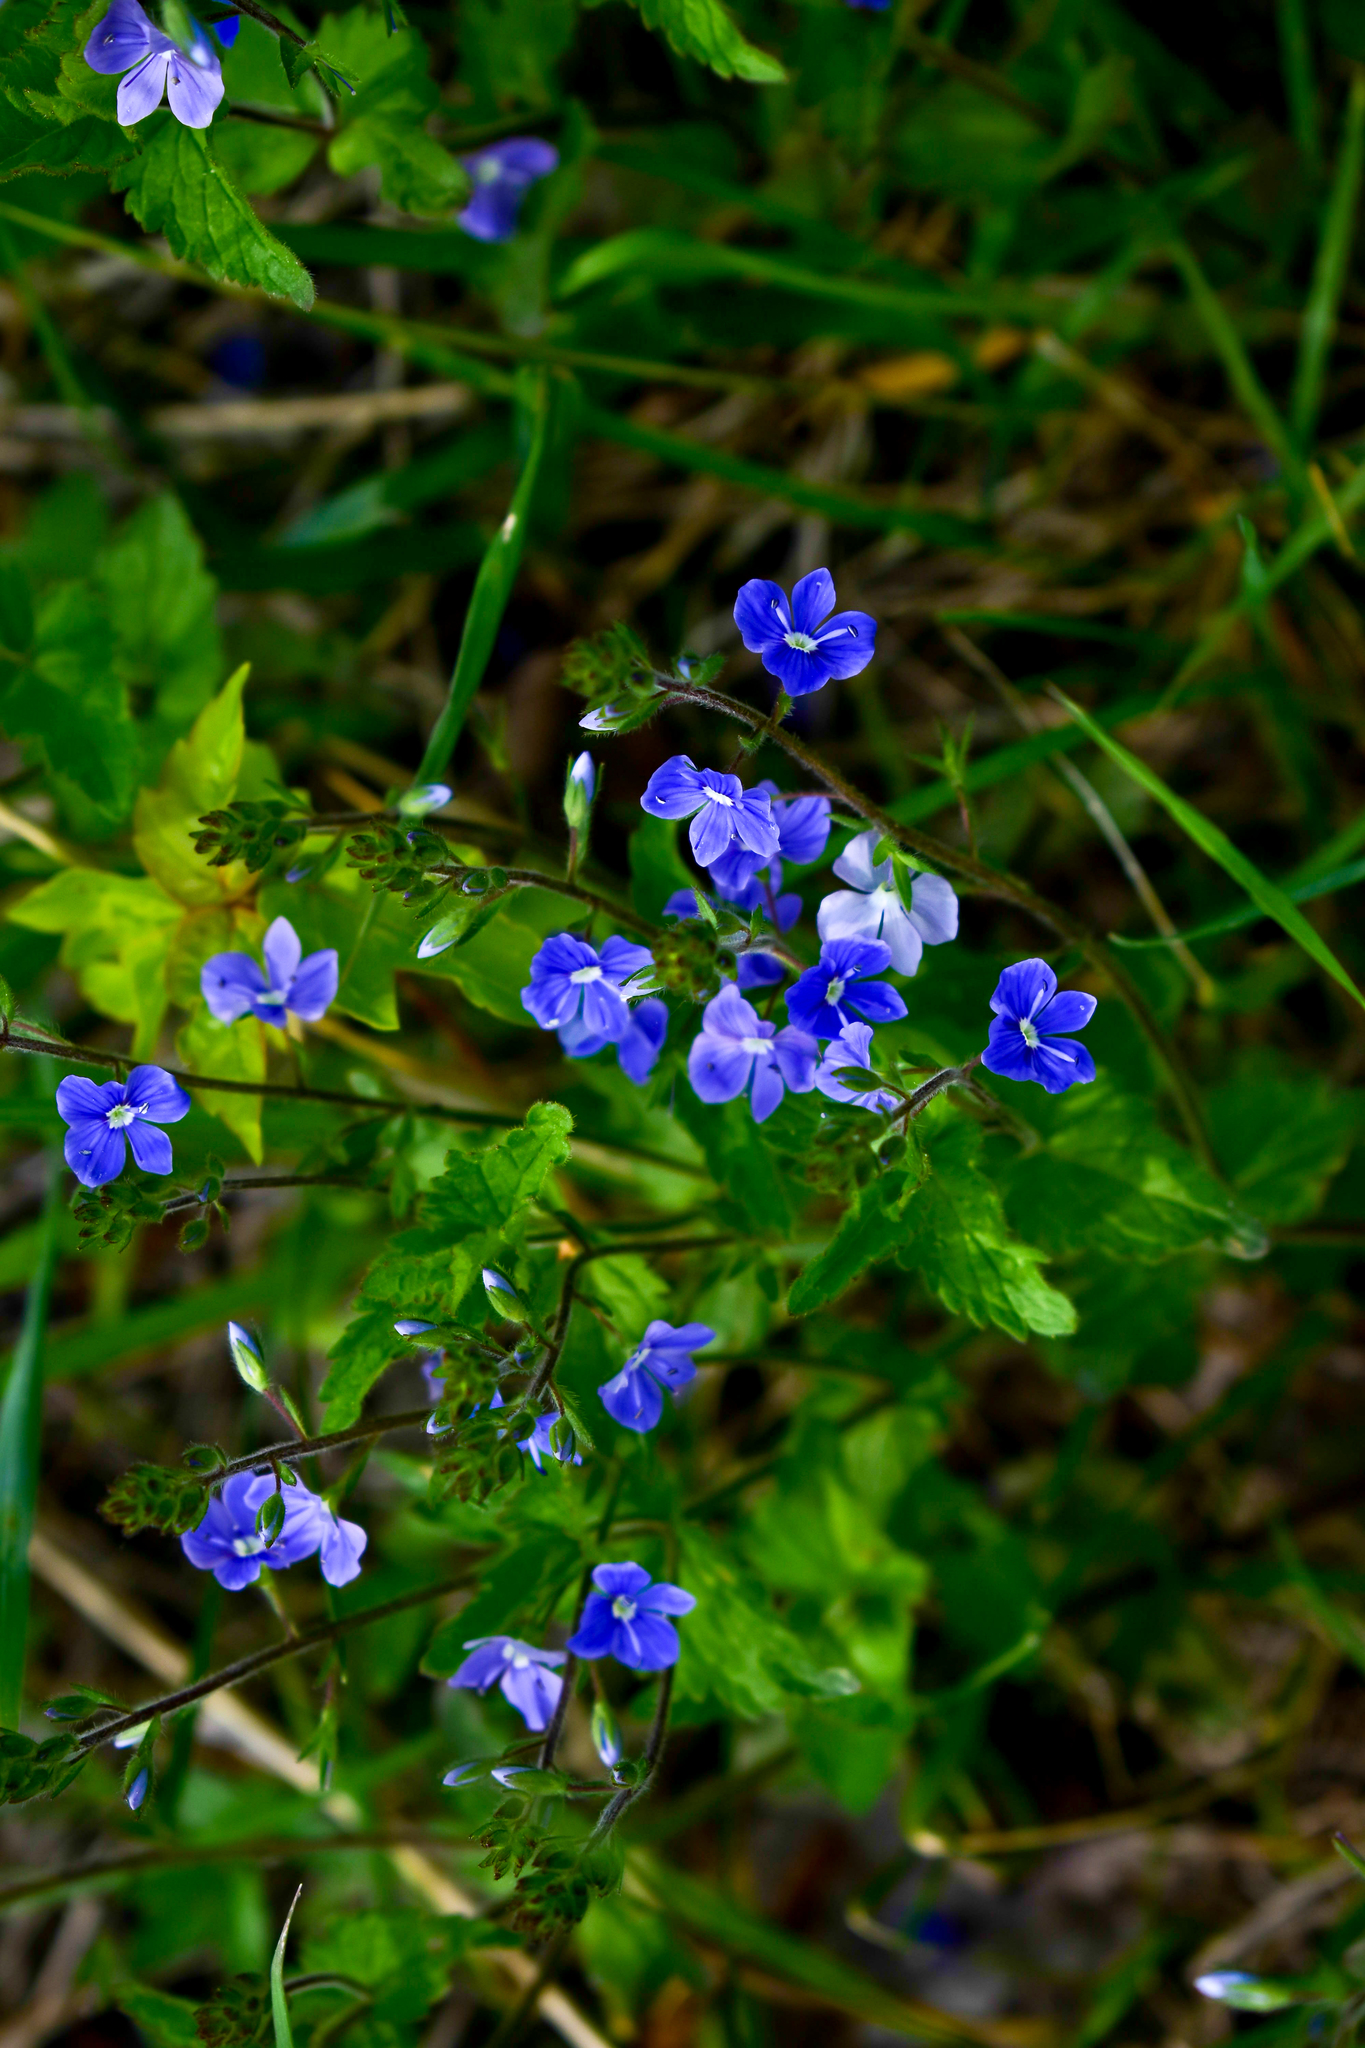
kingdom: Plantae
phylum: Tracheophyta
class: Magnoliopsida
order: Lamiales
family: Plantaginaceae
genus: Veronica
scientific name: Veronica chamaedrys
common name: Germander speedwell
